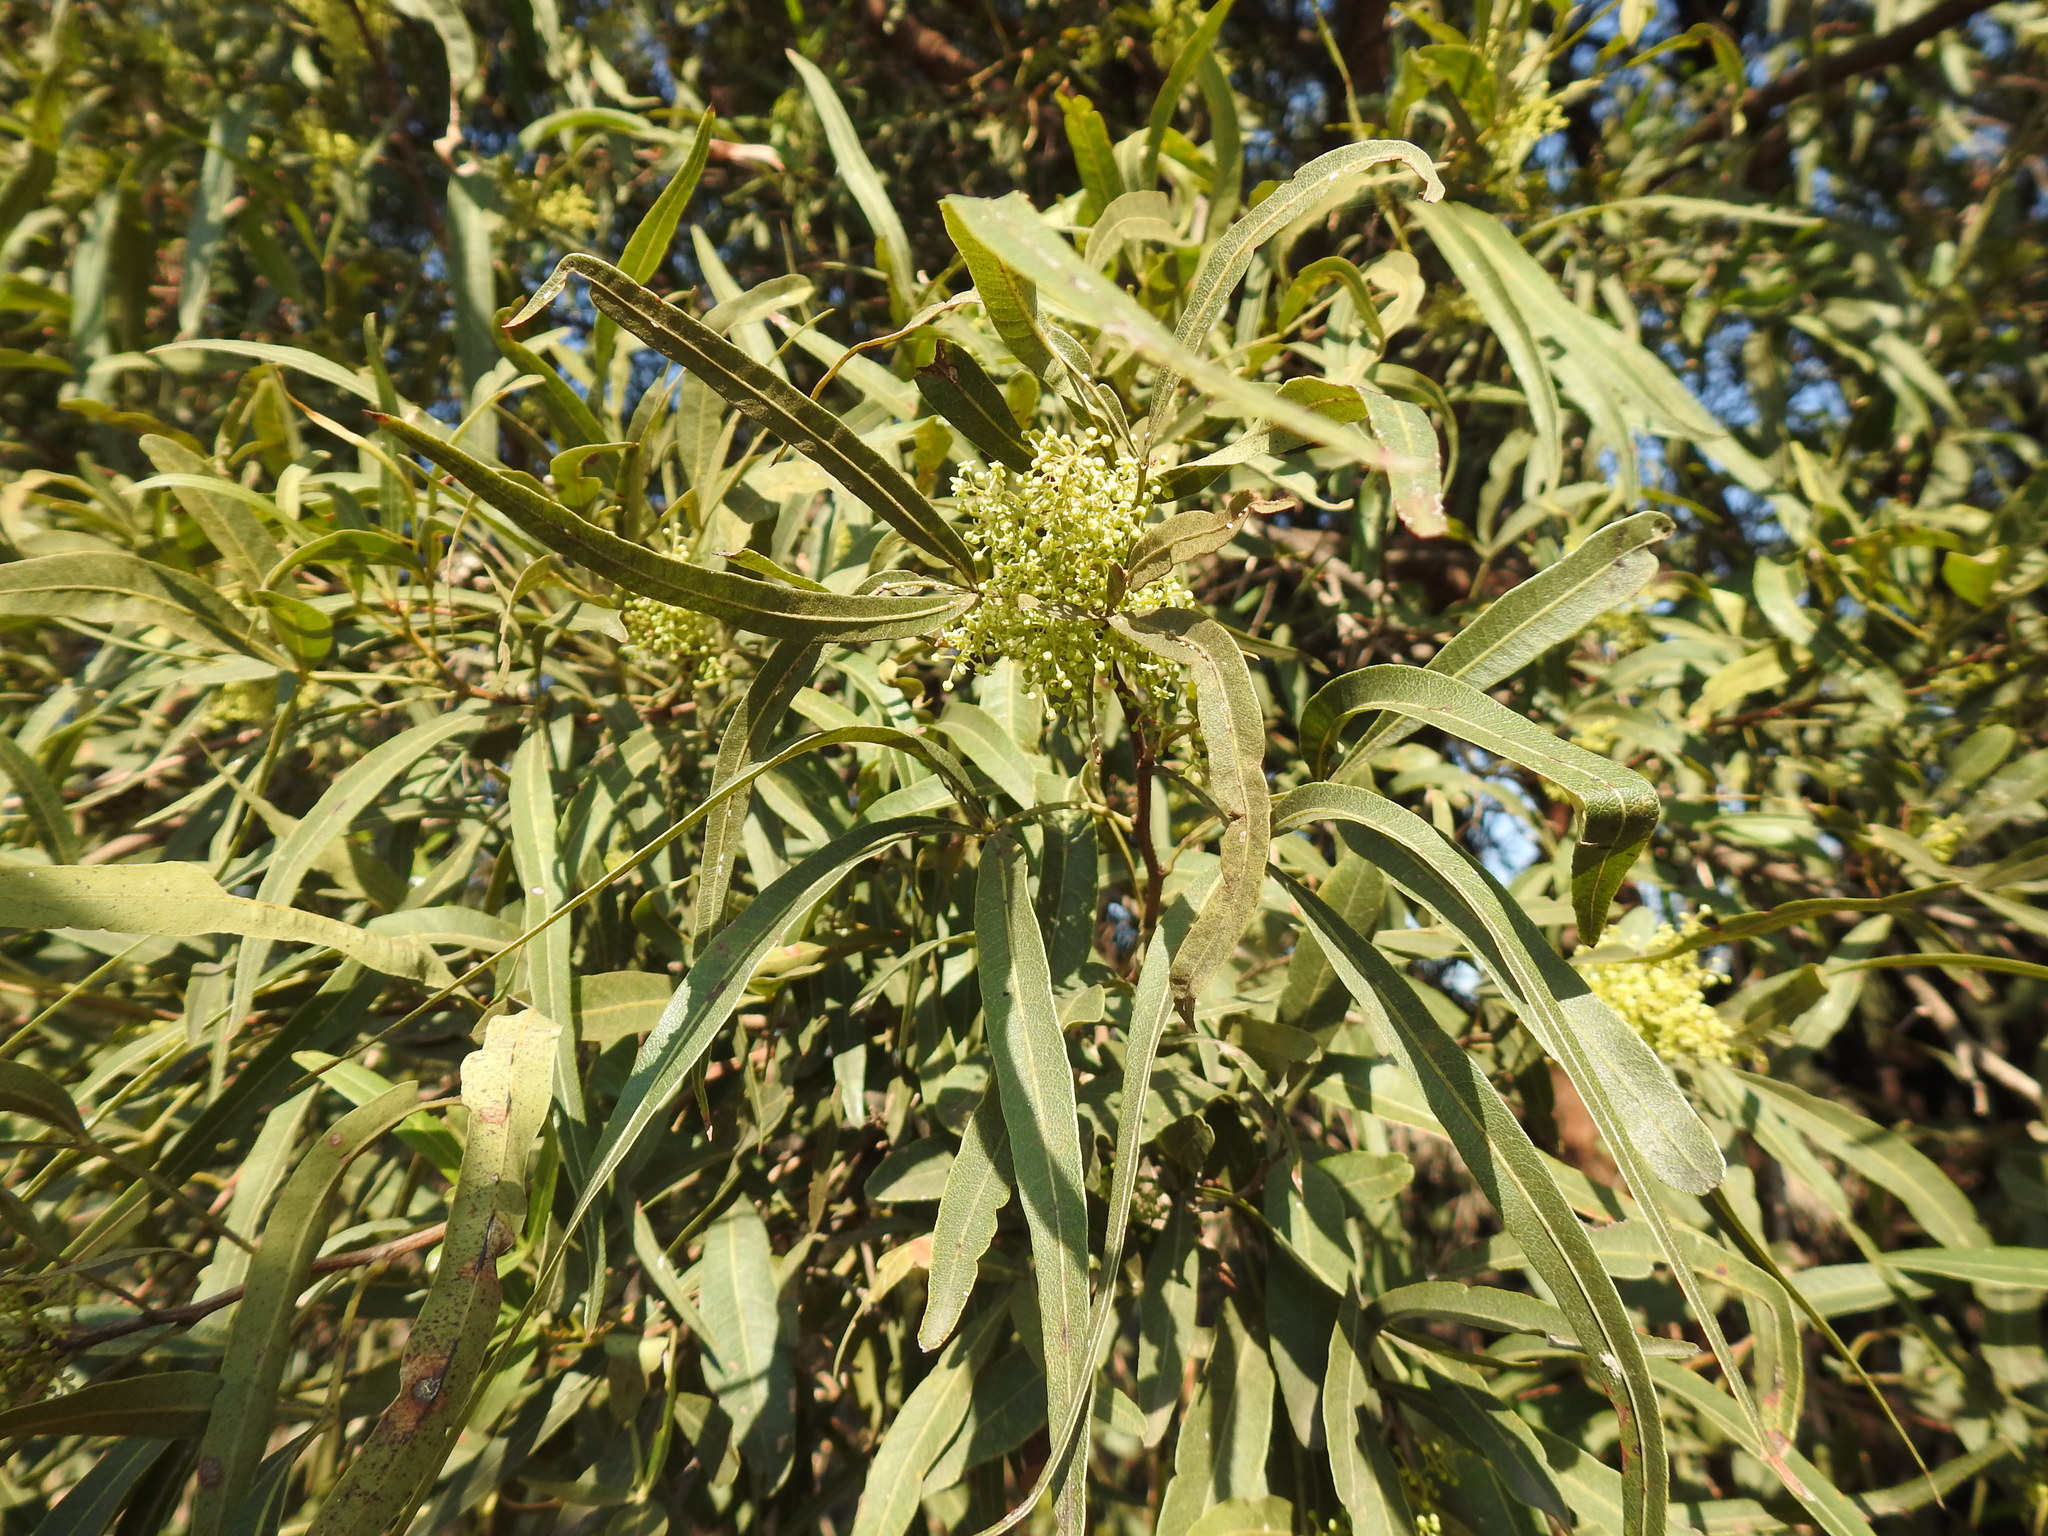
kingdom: Plantae
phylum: Tracheophyta
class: Magnoliopsida
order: Sapindales
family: Anacardiaceae
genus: Searsia
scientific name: Searsia lancea
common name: Cashew
